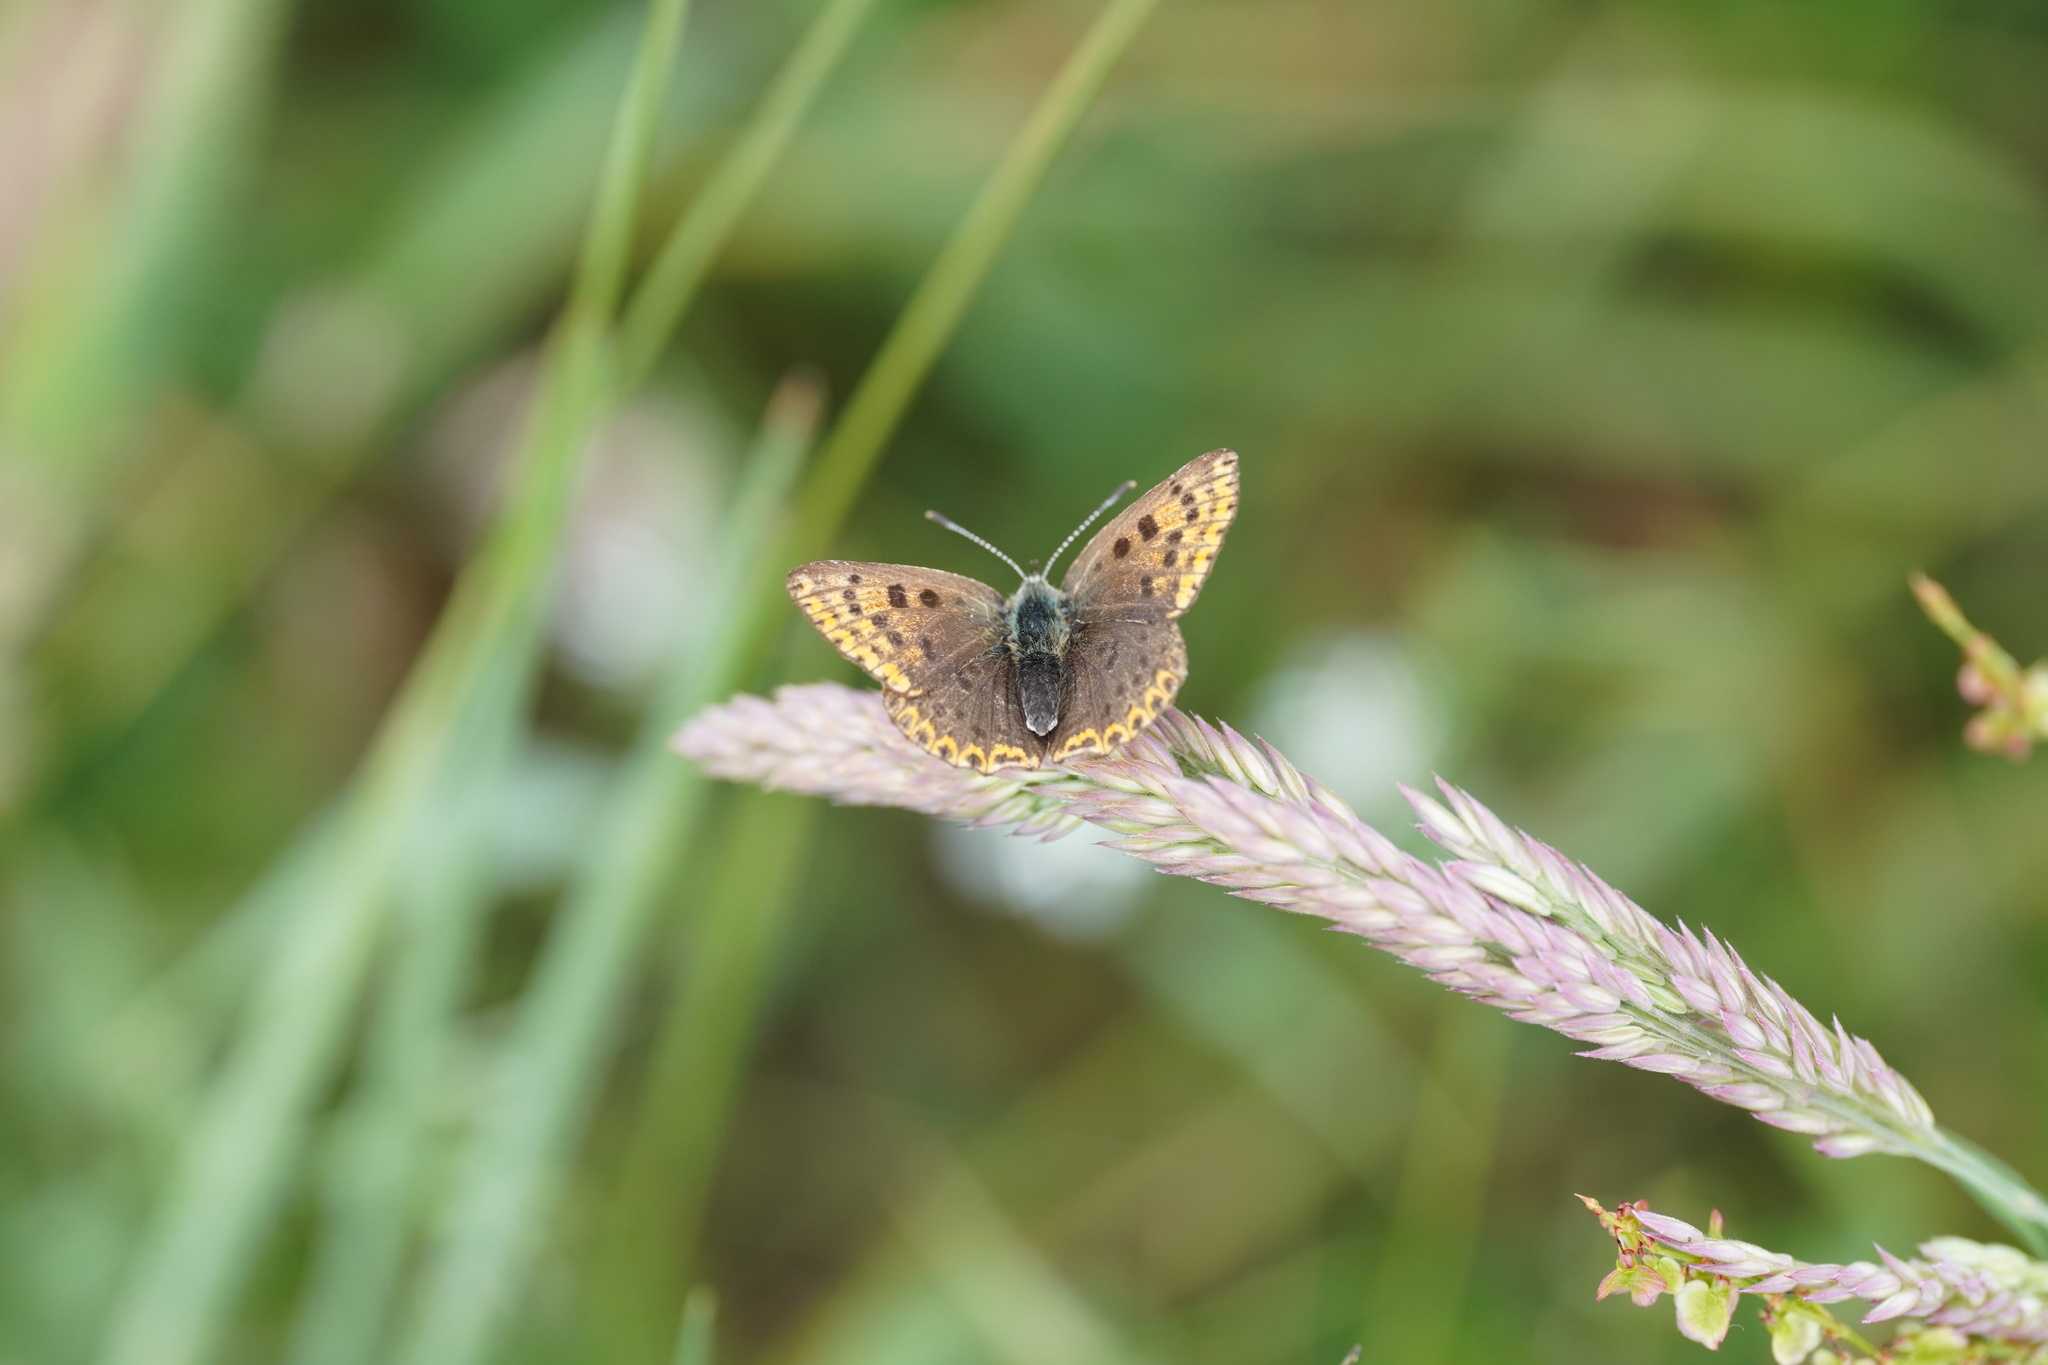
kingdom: Animalia
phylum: Arthropoda
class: Insecta
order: Lepidoptera
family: Lycaenidae
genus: Loweia
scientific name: Loweia tityrus
